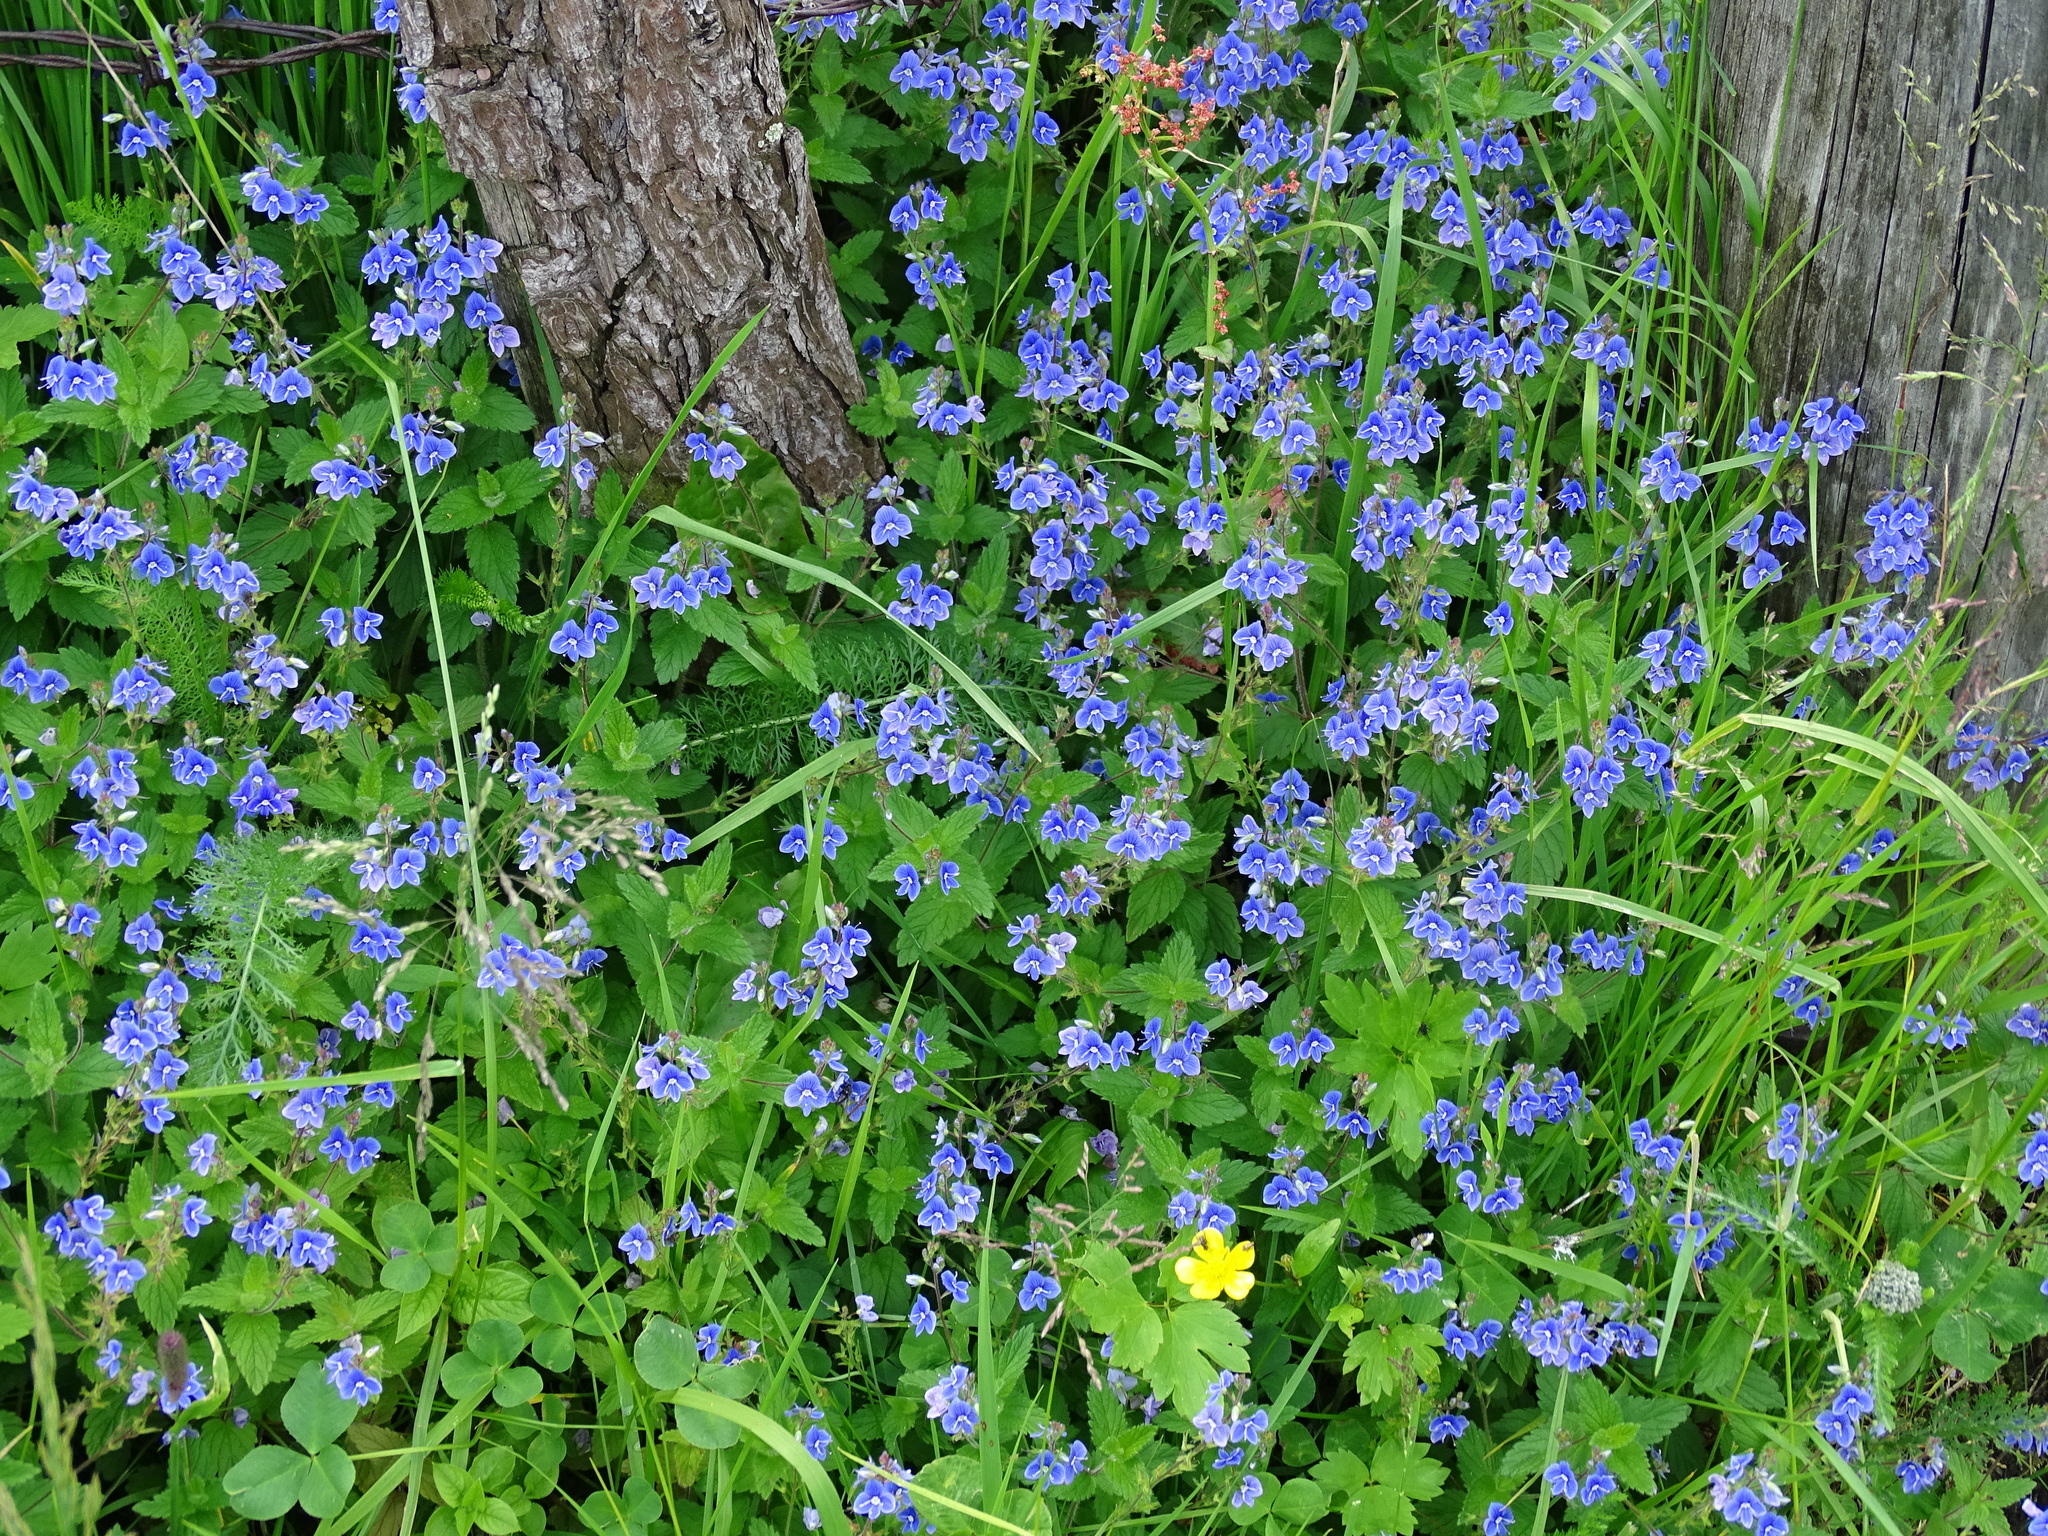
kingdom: Plantae
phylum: Tracheophyta
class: Magnoliopsida
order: Lamiales
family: Plantaginaceae
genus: Veronica
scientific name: Veronica chamaedrys
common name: Germander speedwell
